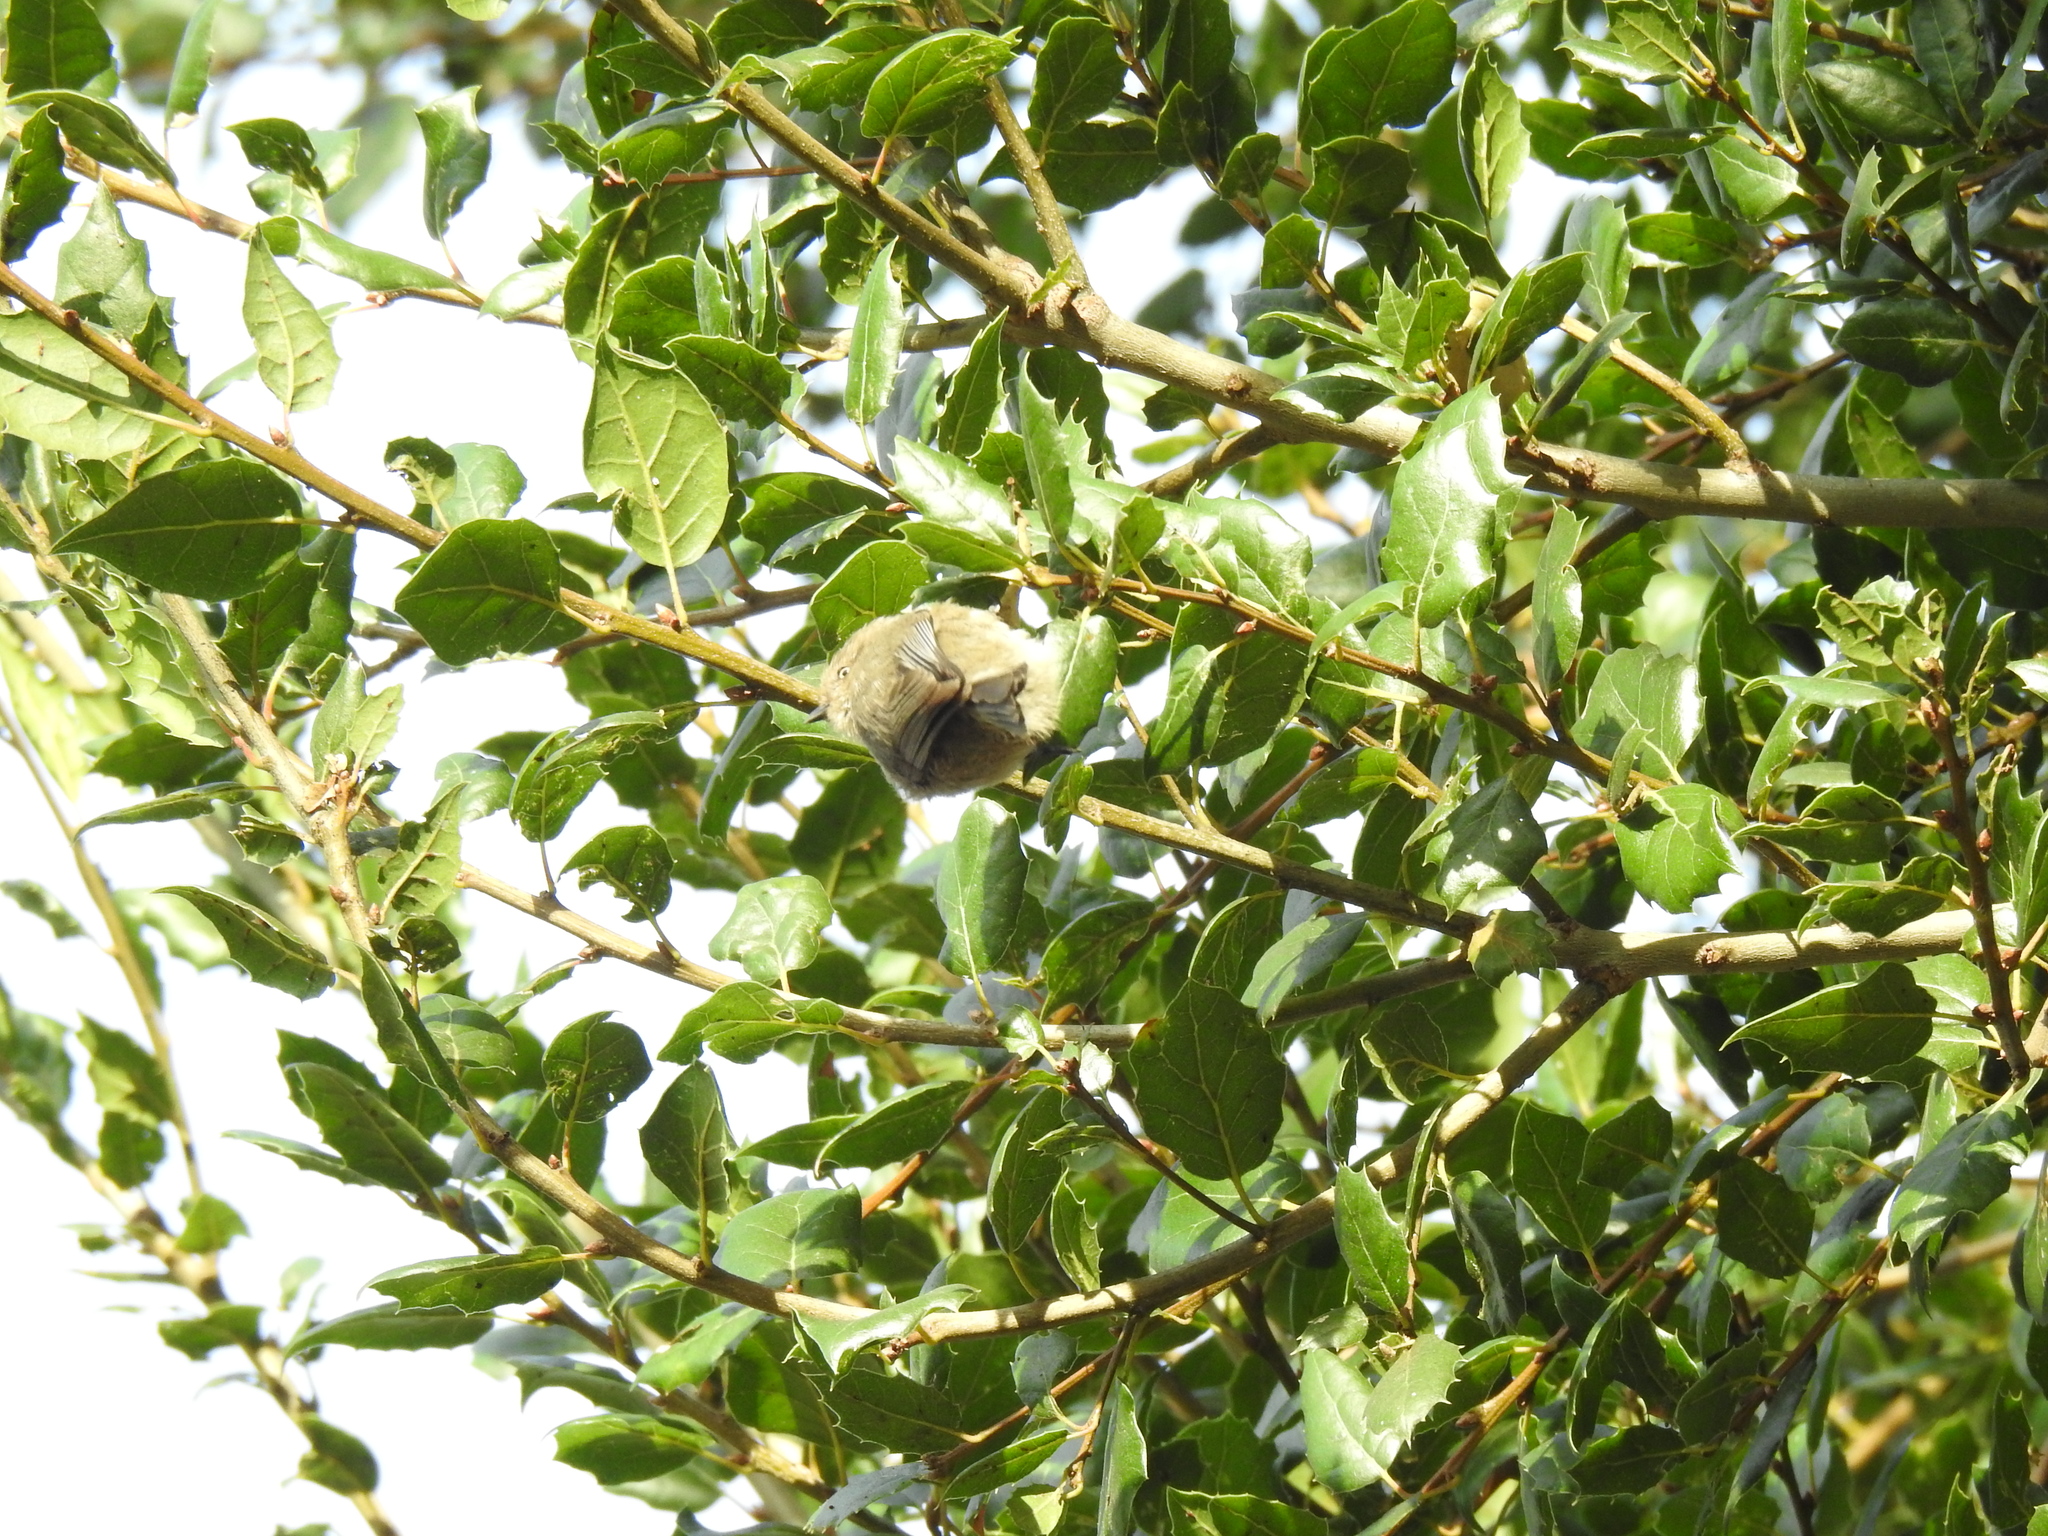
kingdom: Animalia
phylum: Chordata
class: Aves
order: Passeriformes
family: Aegithalidae
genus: Psaltriparus
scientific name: Psaltriparus minimus
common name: American bushtit
